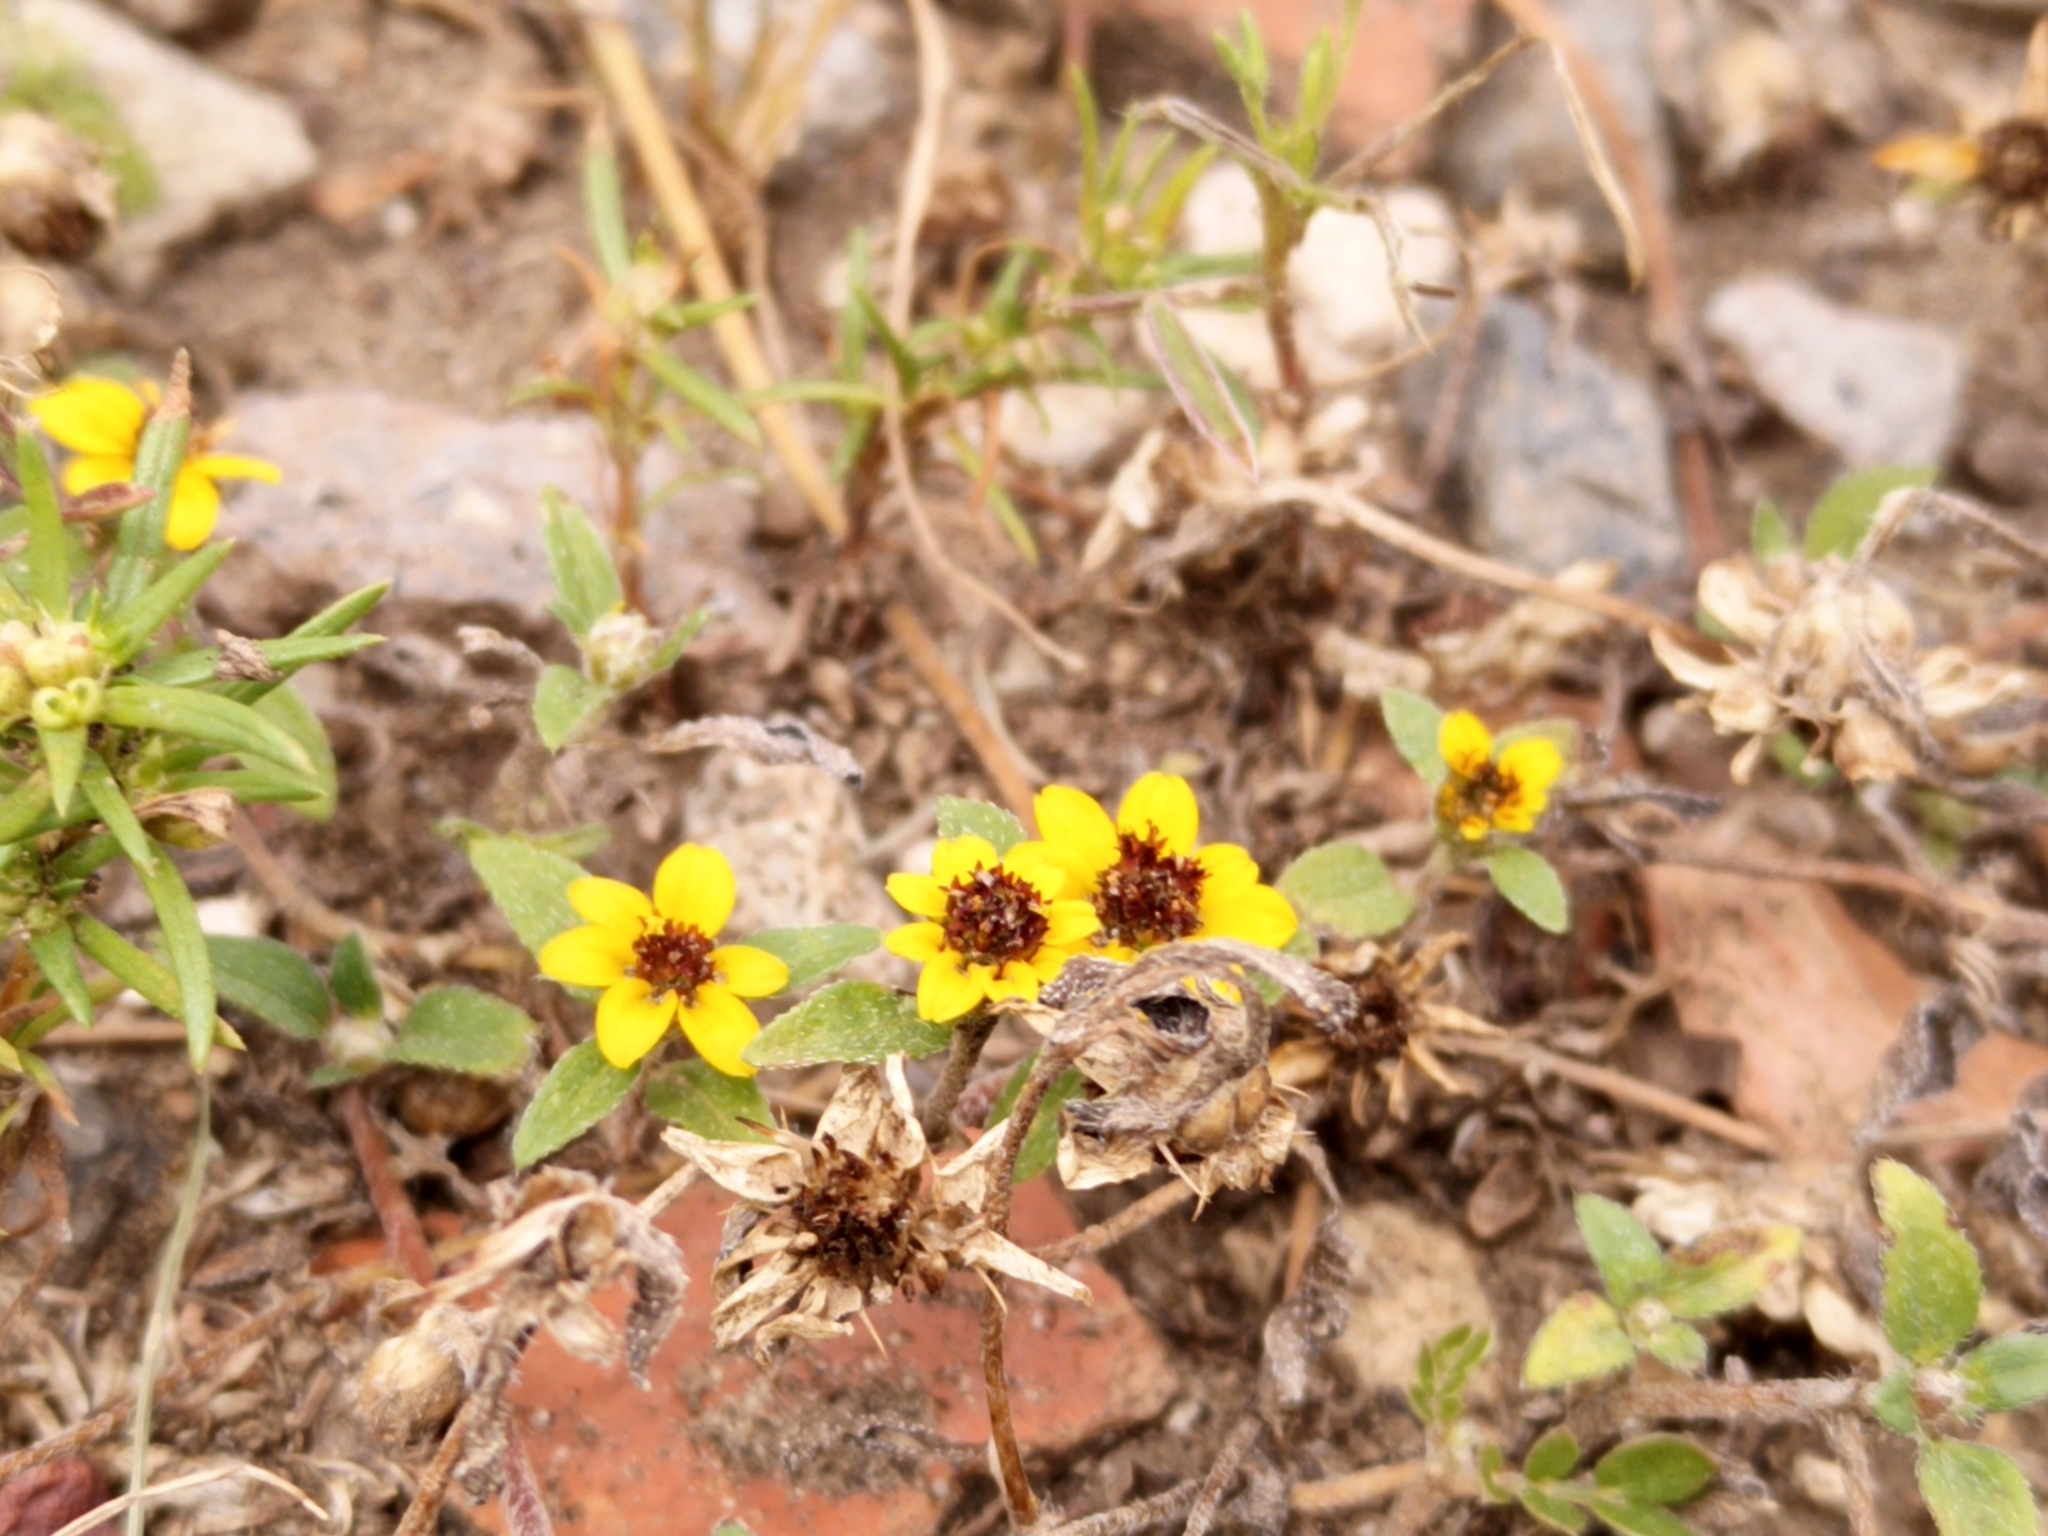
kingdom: Plantae
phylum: Tracheophyta
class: Magnoliopsida
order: Asterales
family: Asteraceae
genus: Sanvitalia
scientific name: Sanvitalia procumbens
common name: Mexican creeping zinnia
